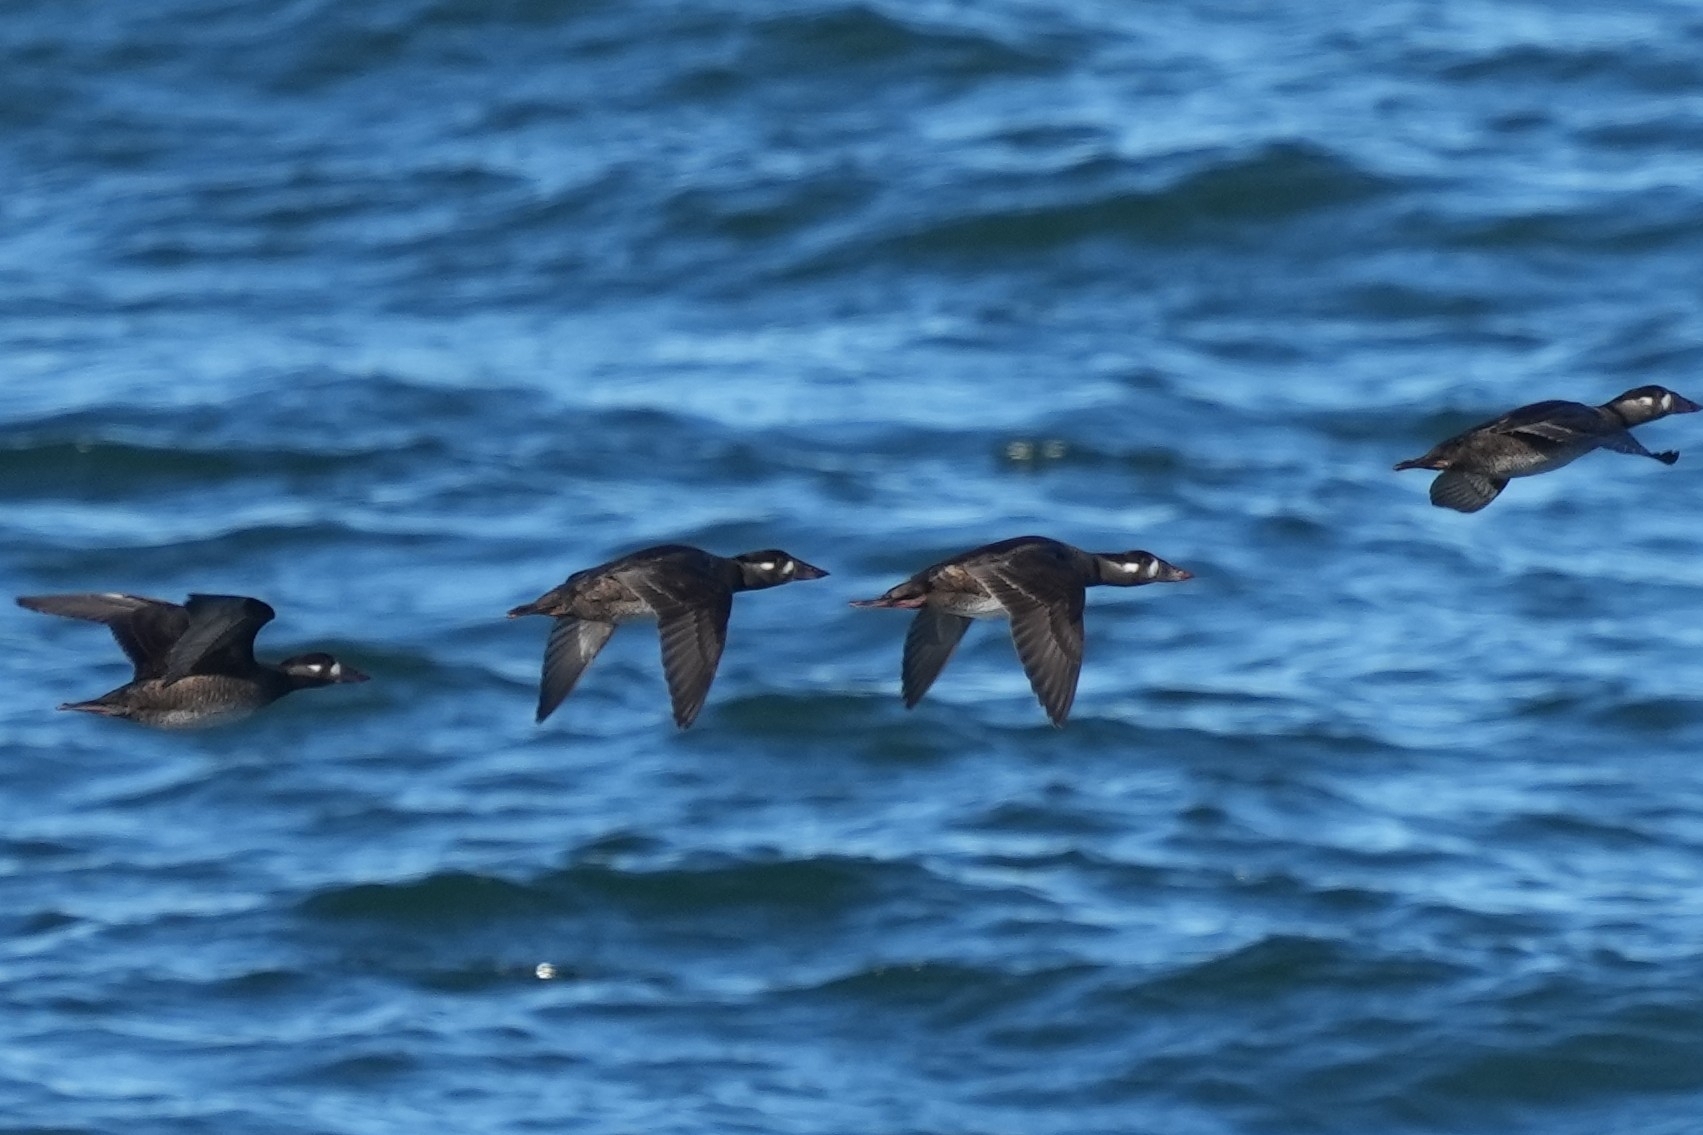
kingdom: Animalia
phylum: Chordata
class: Aves
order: Anseriformes
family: Anatidae
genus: Melanitta
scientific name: Melanitta perspicillata
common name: Surf scoter
